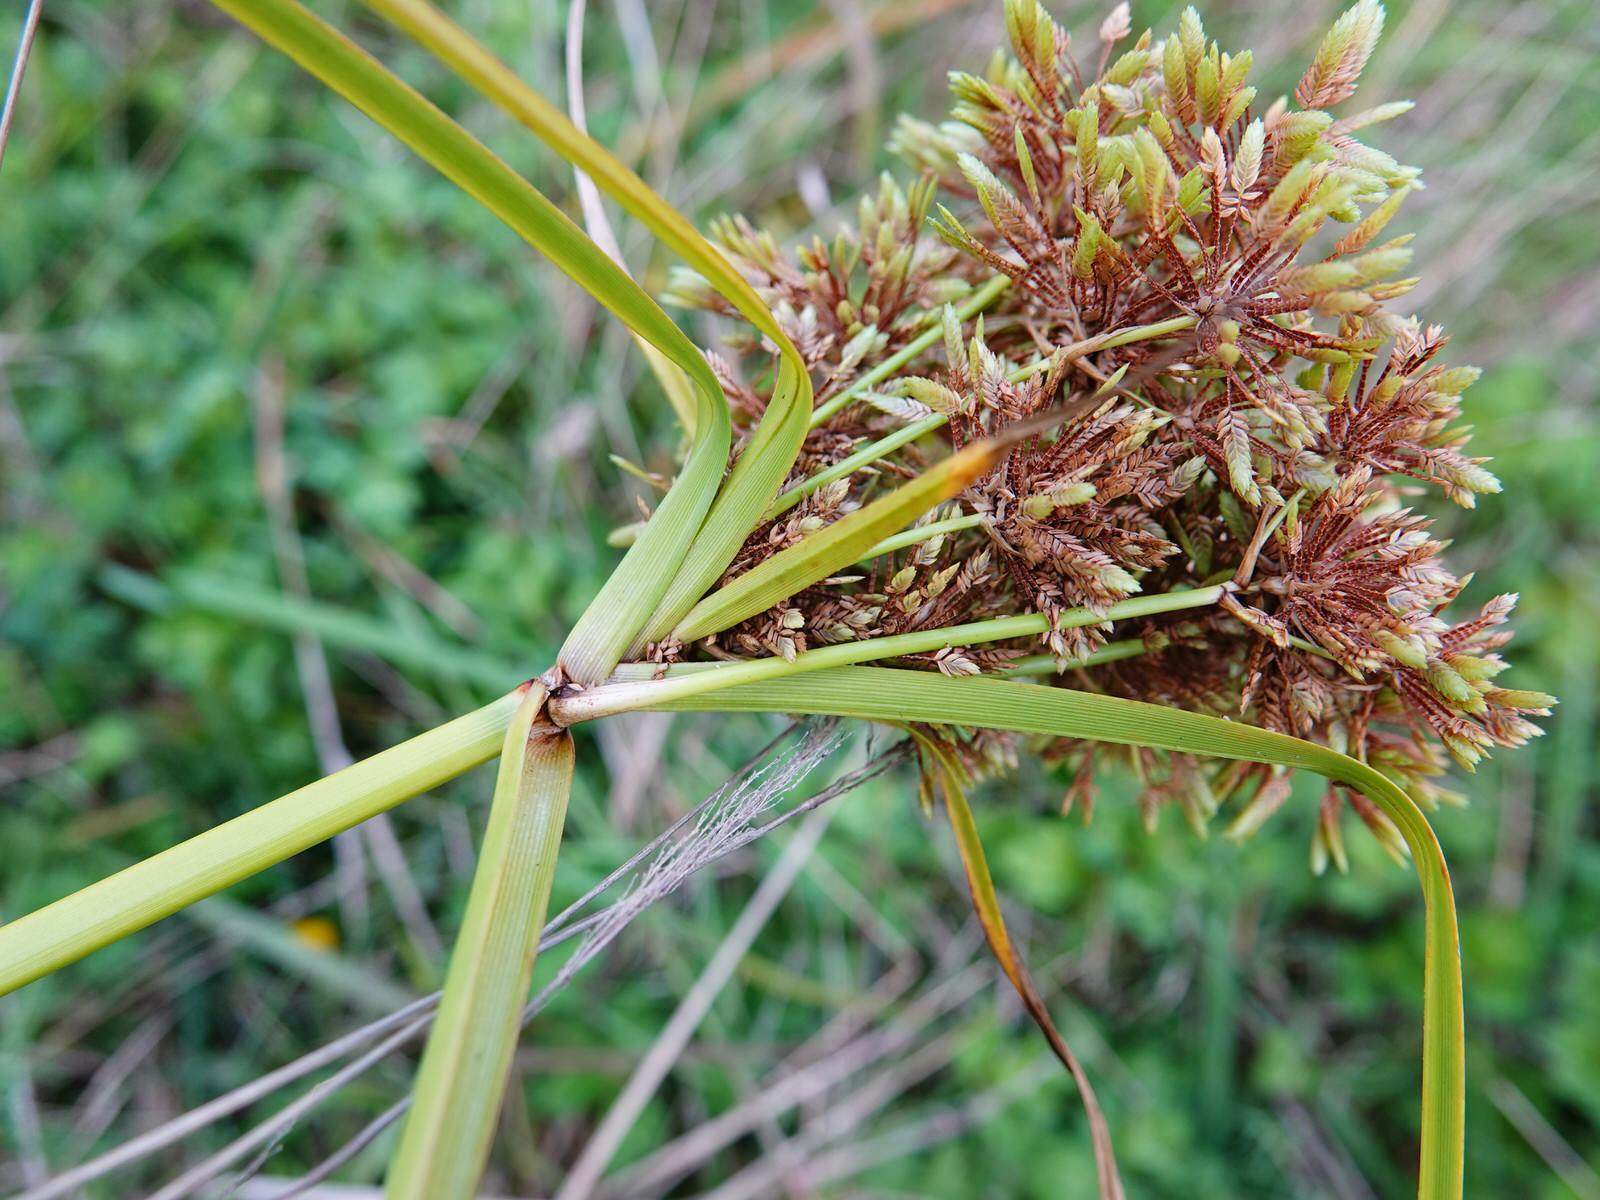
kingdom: Plantae
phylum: Tracheophyta
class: Liliopsida
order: Poales
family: Cyperaceae
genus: Cyperus
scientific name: Cyperus eragrostis
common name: Tall flatsedge
